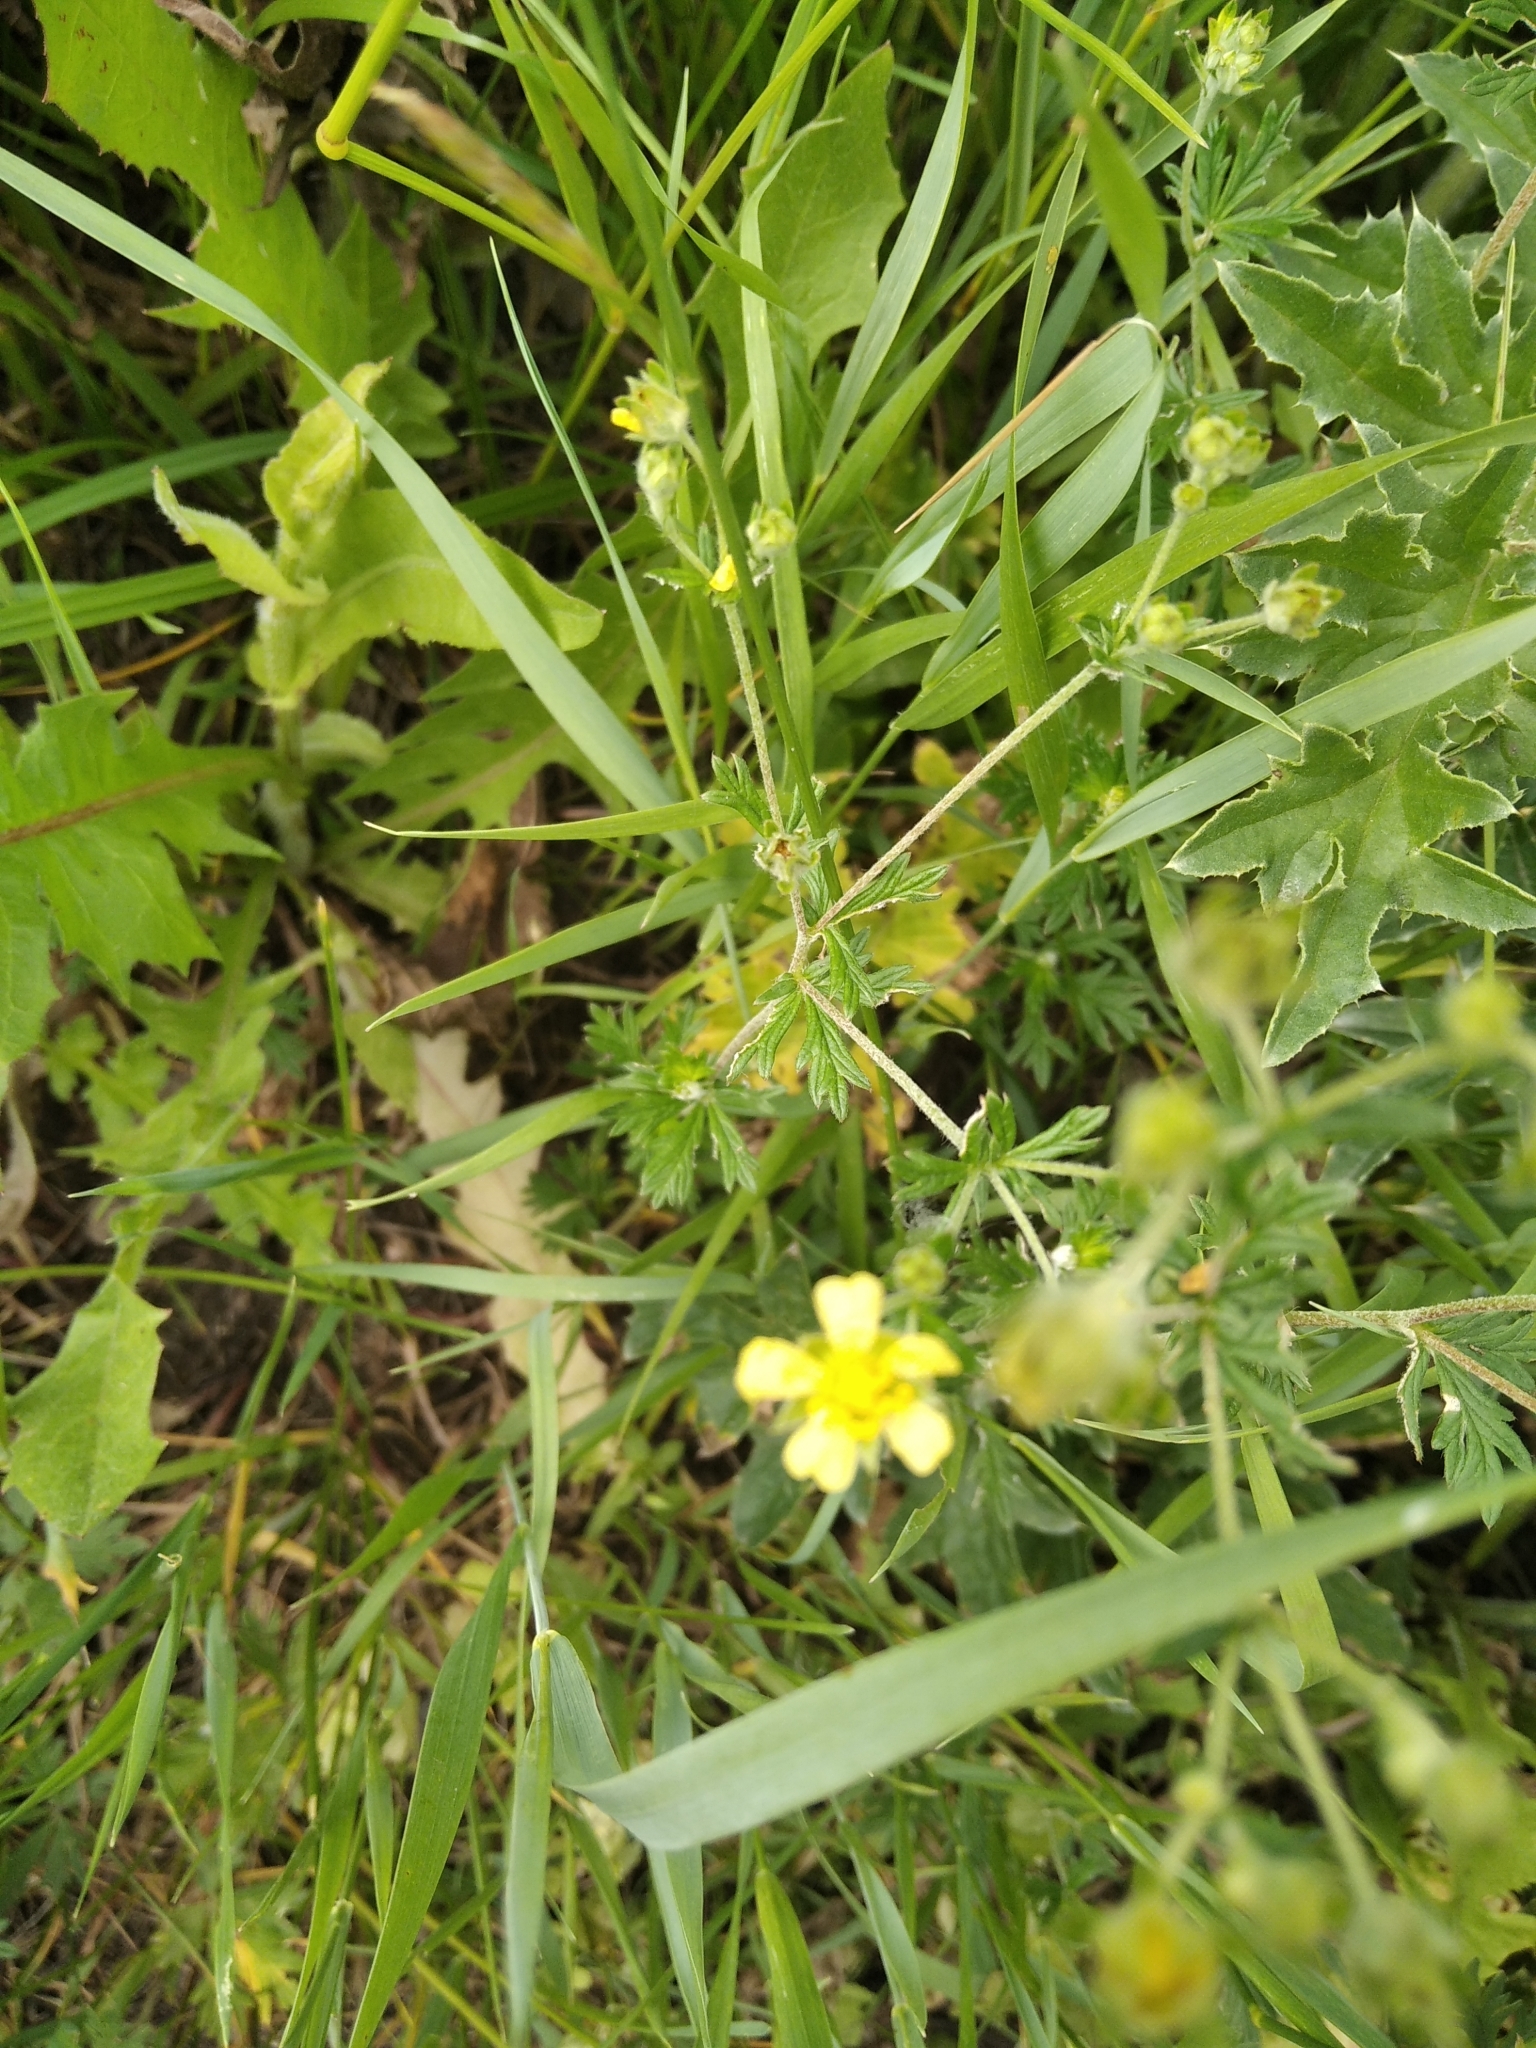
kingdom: Plantae
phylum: Tracheophyta
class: Magnoliopsida
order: Rosales
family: Rosaceae
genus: Potentilla
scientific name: Potentilla argentea
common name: Hoary cinquefoil
